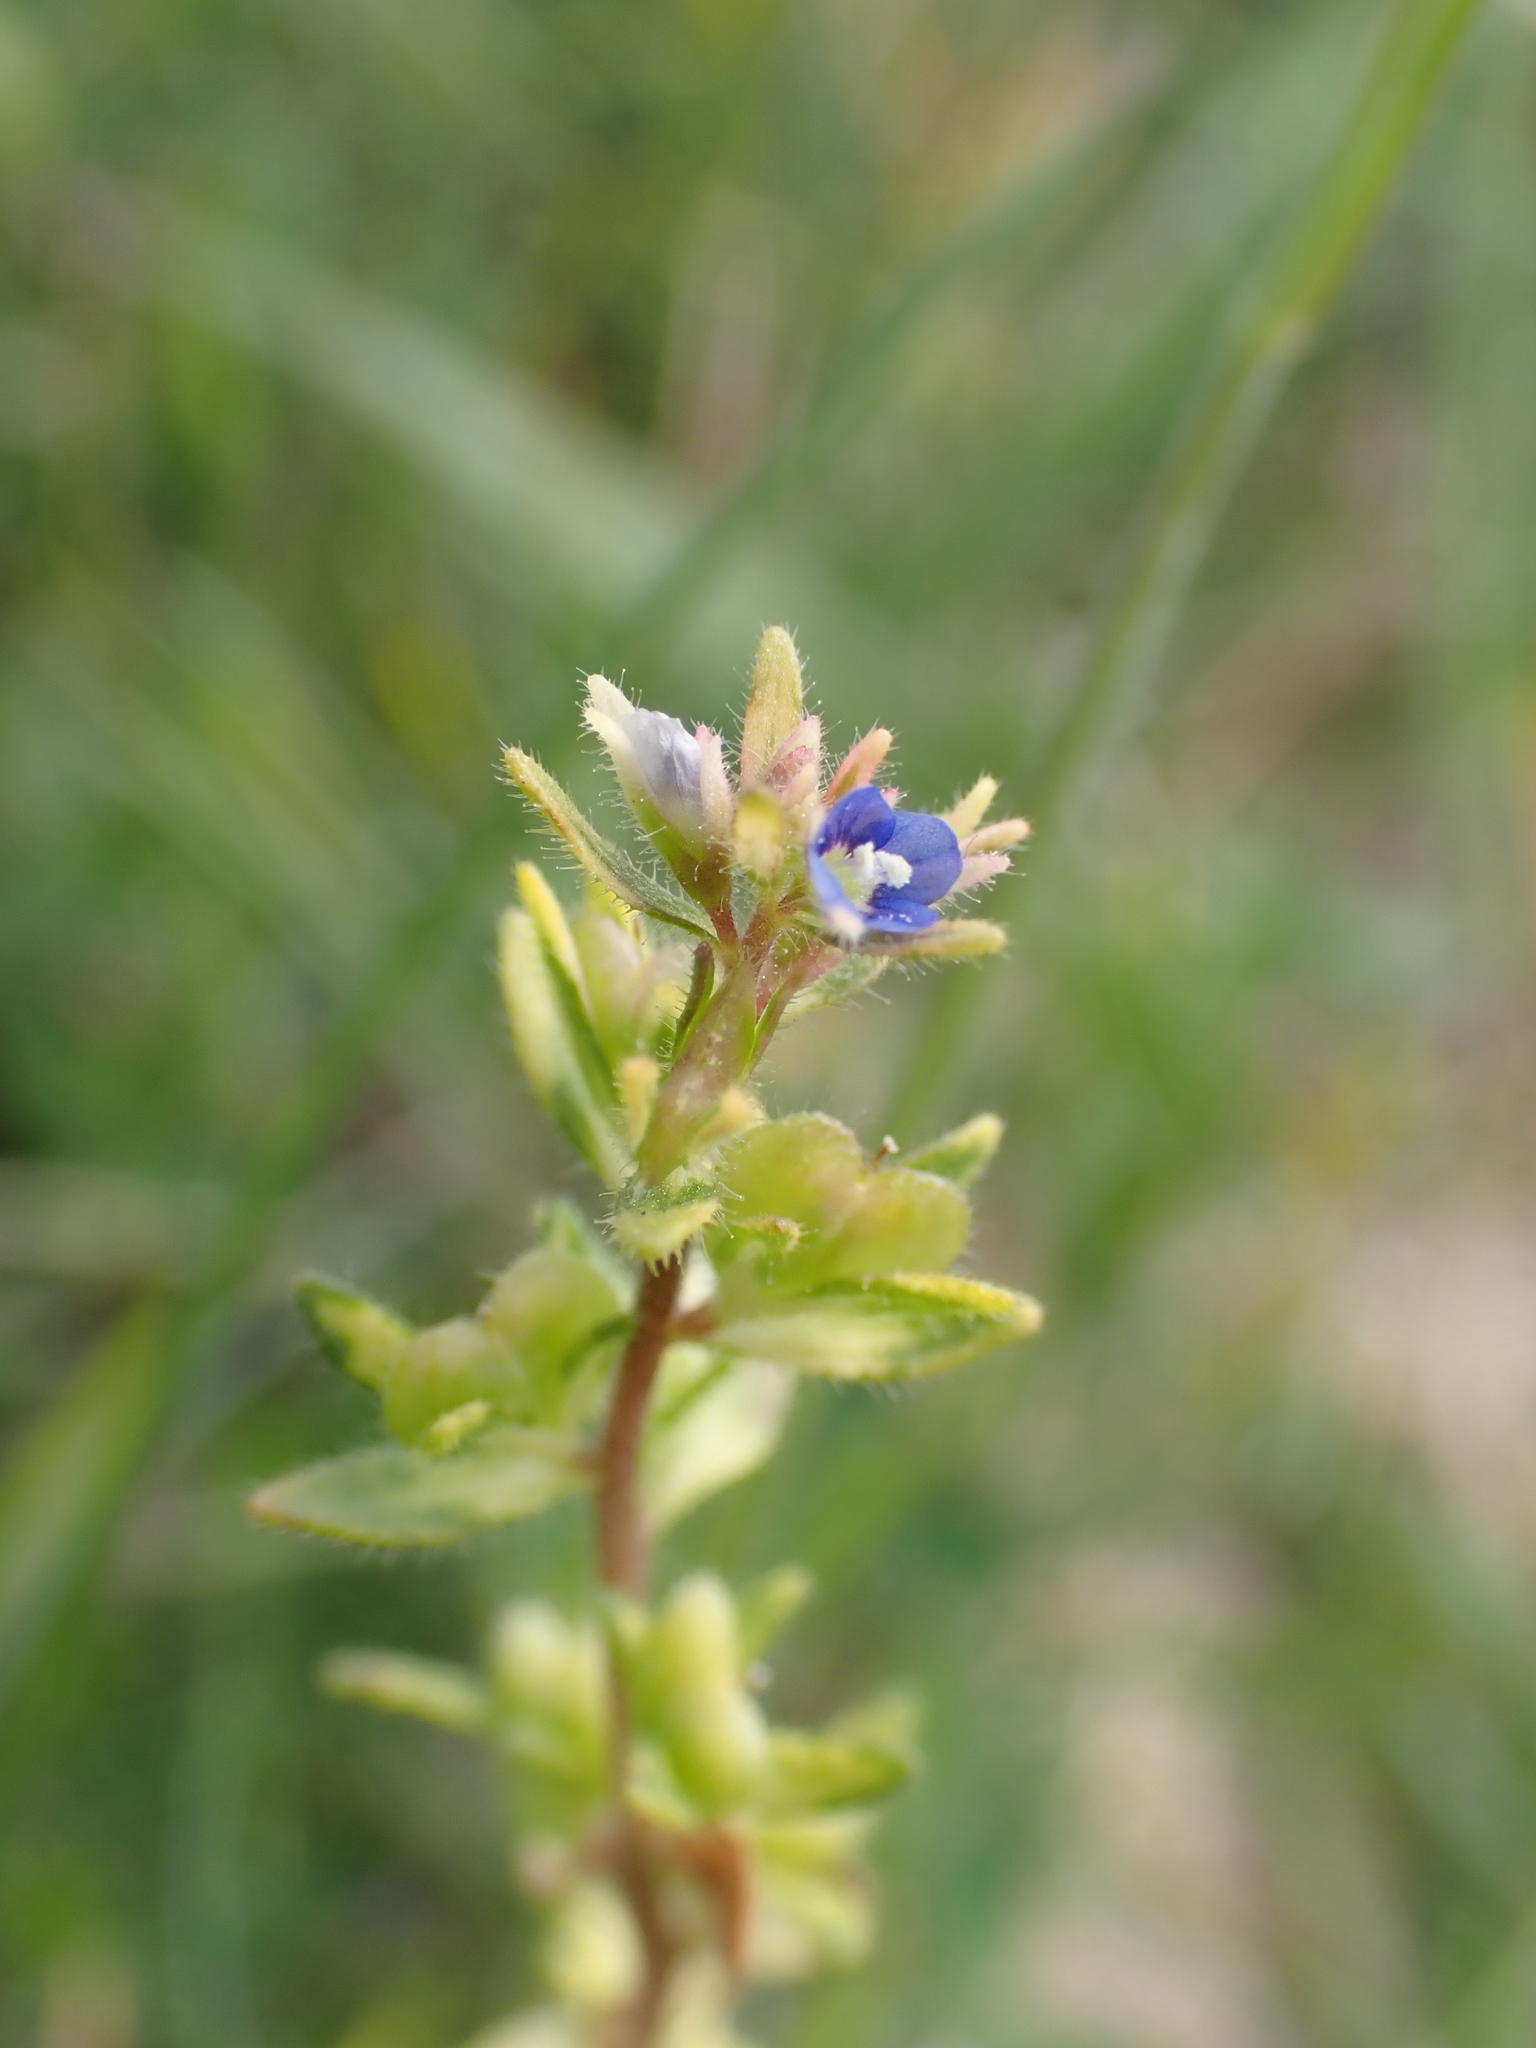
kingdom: Plantae
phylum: Tracheophyta
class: Magnoliopsida
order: Lamiales
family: Plantaginaceae
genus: Veronica
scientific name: Veronica arvensis
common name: Corn speedwell
